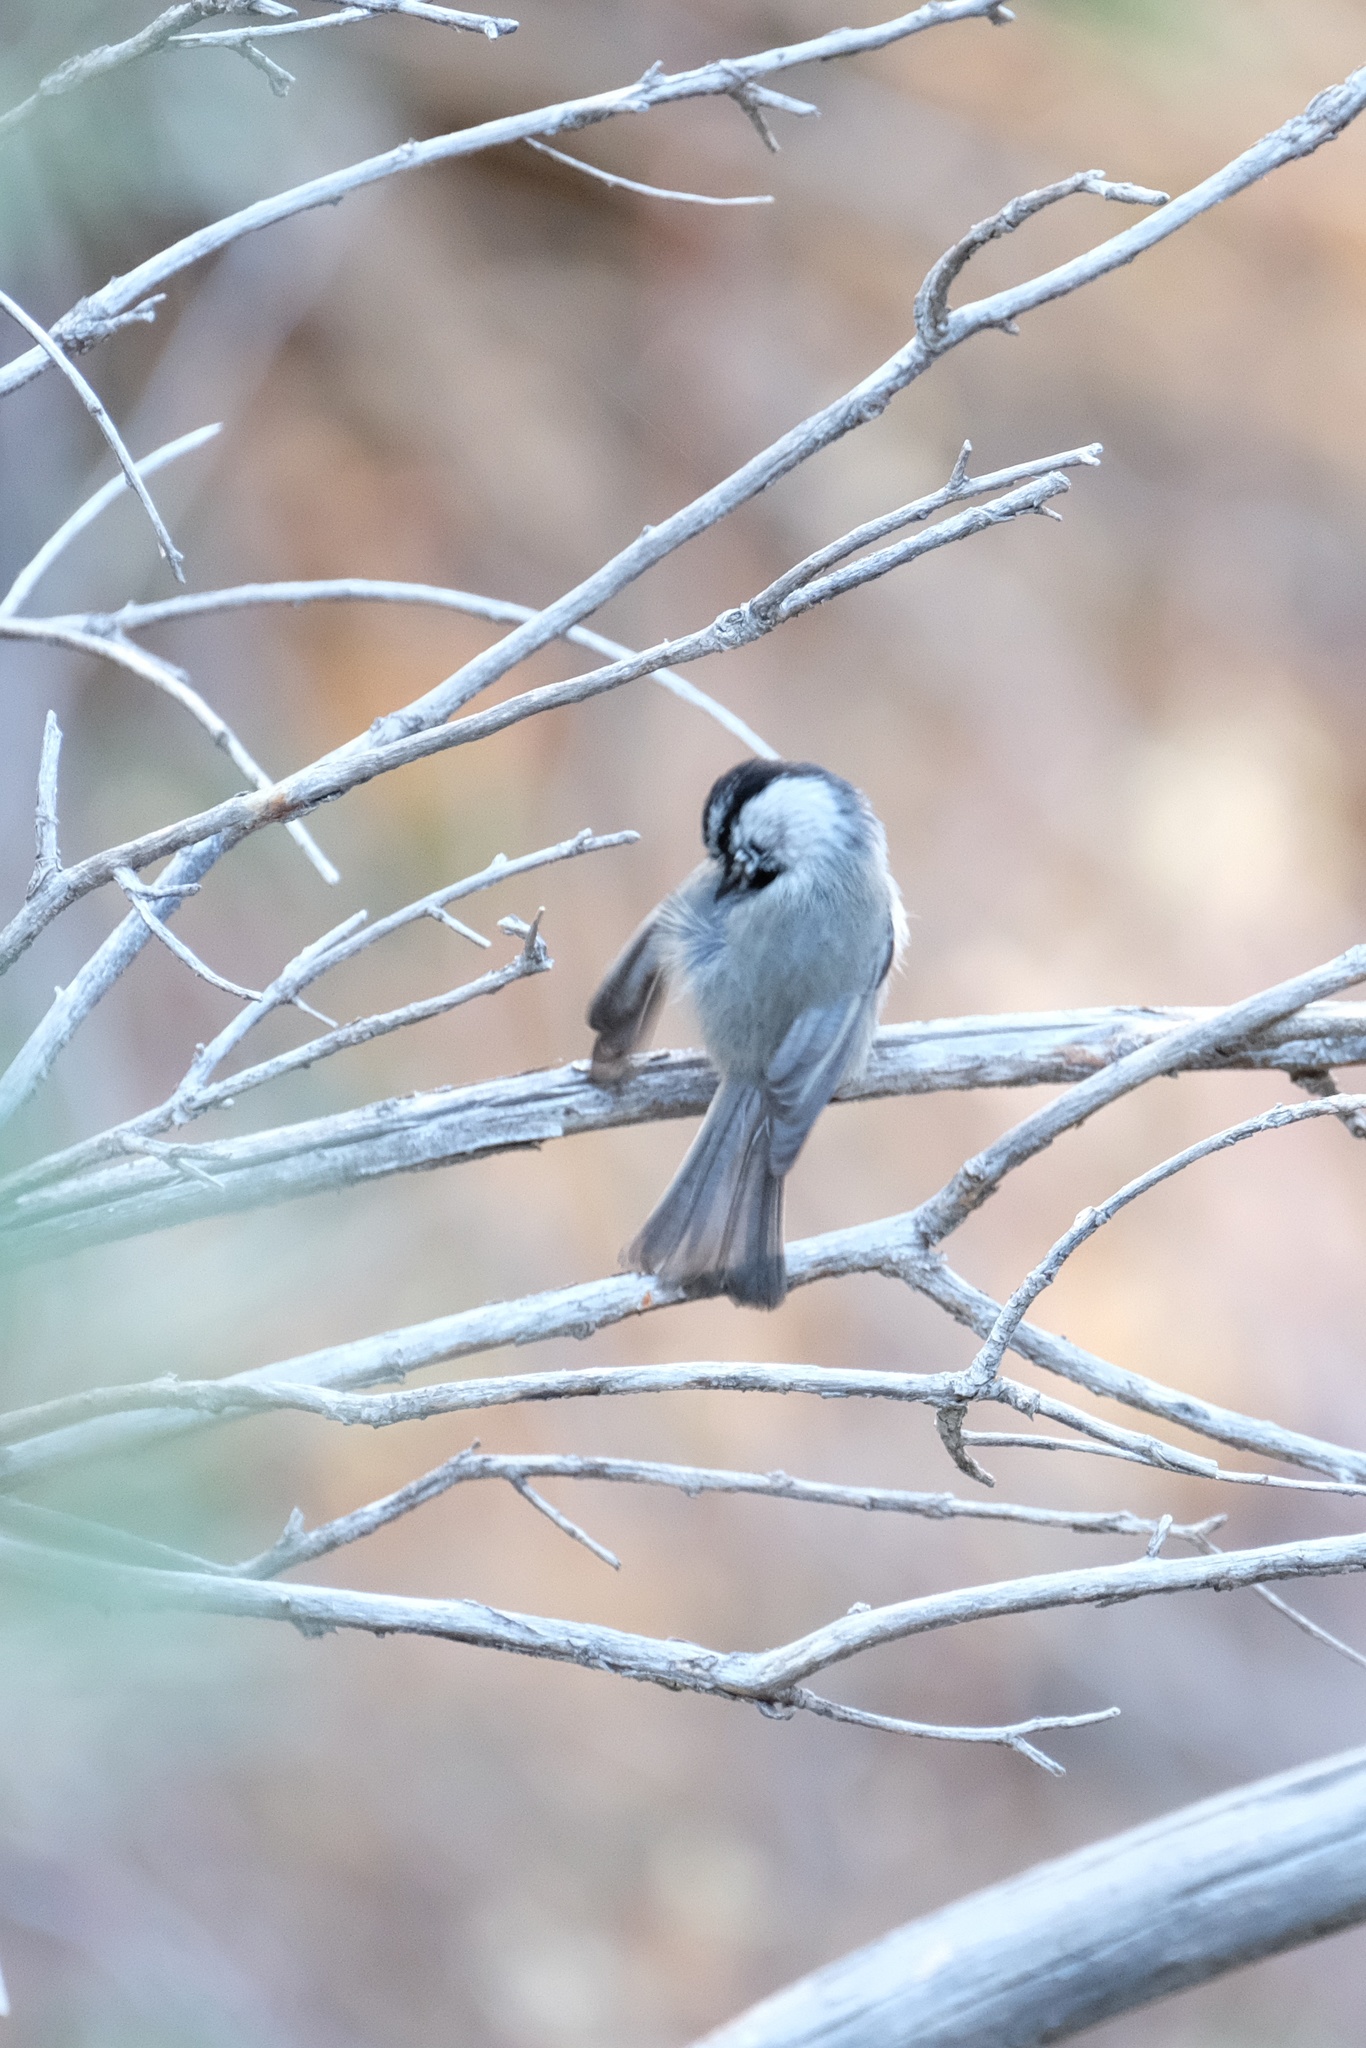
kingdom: Animalia
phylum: Chordata
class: Aves
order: Passeriformes
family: Paridae
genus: Poecile
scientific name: Poecile gambeli
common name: Mountain chickadee
